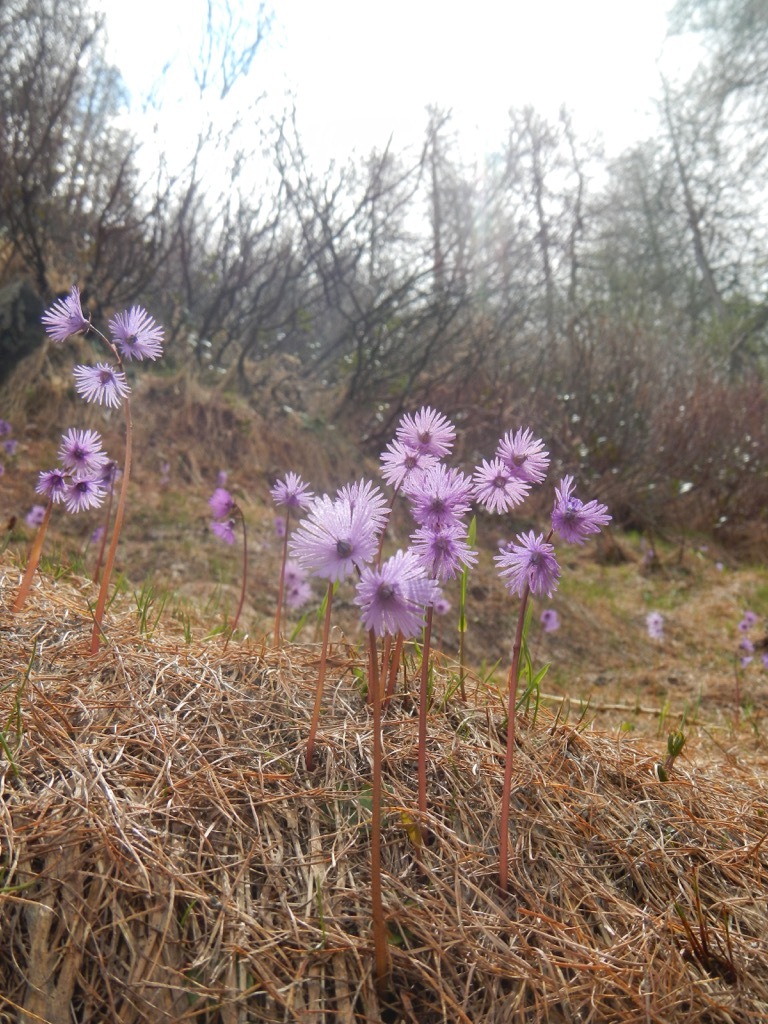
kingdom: Plantae
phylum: Tracheophyta
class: Magnoliopsida
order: Ericales
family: Primulaceae
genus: Soldanella
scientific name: Soldanella alpina
